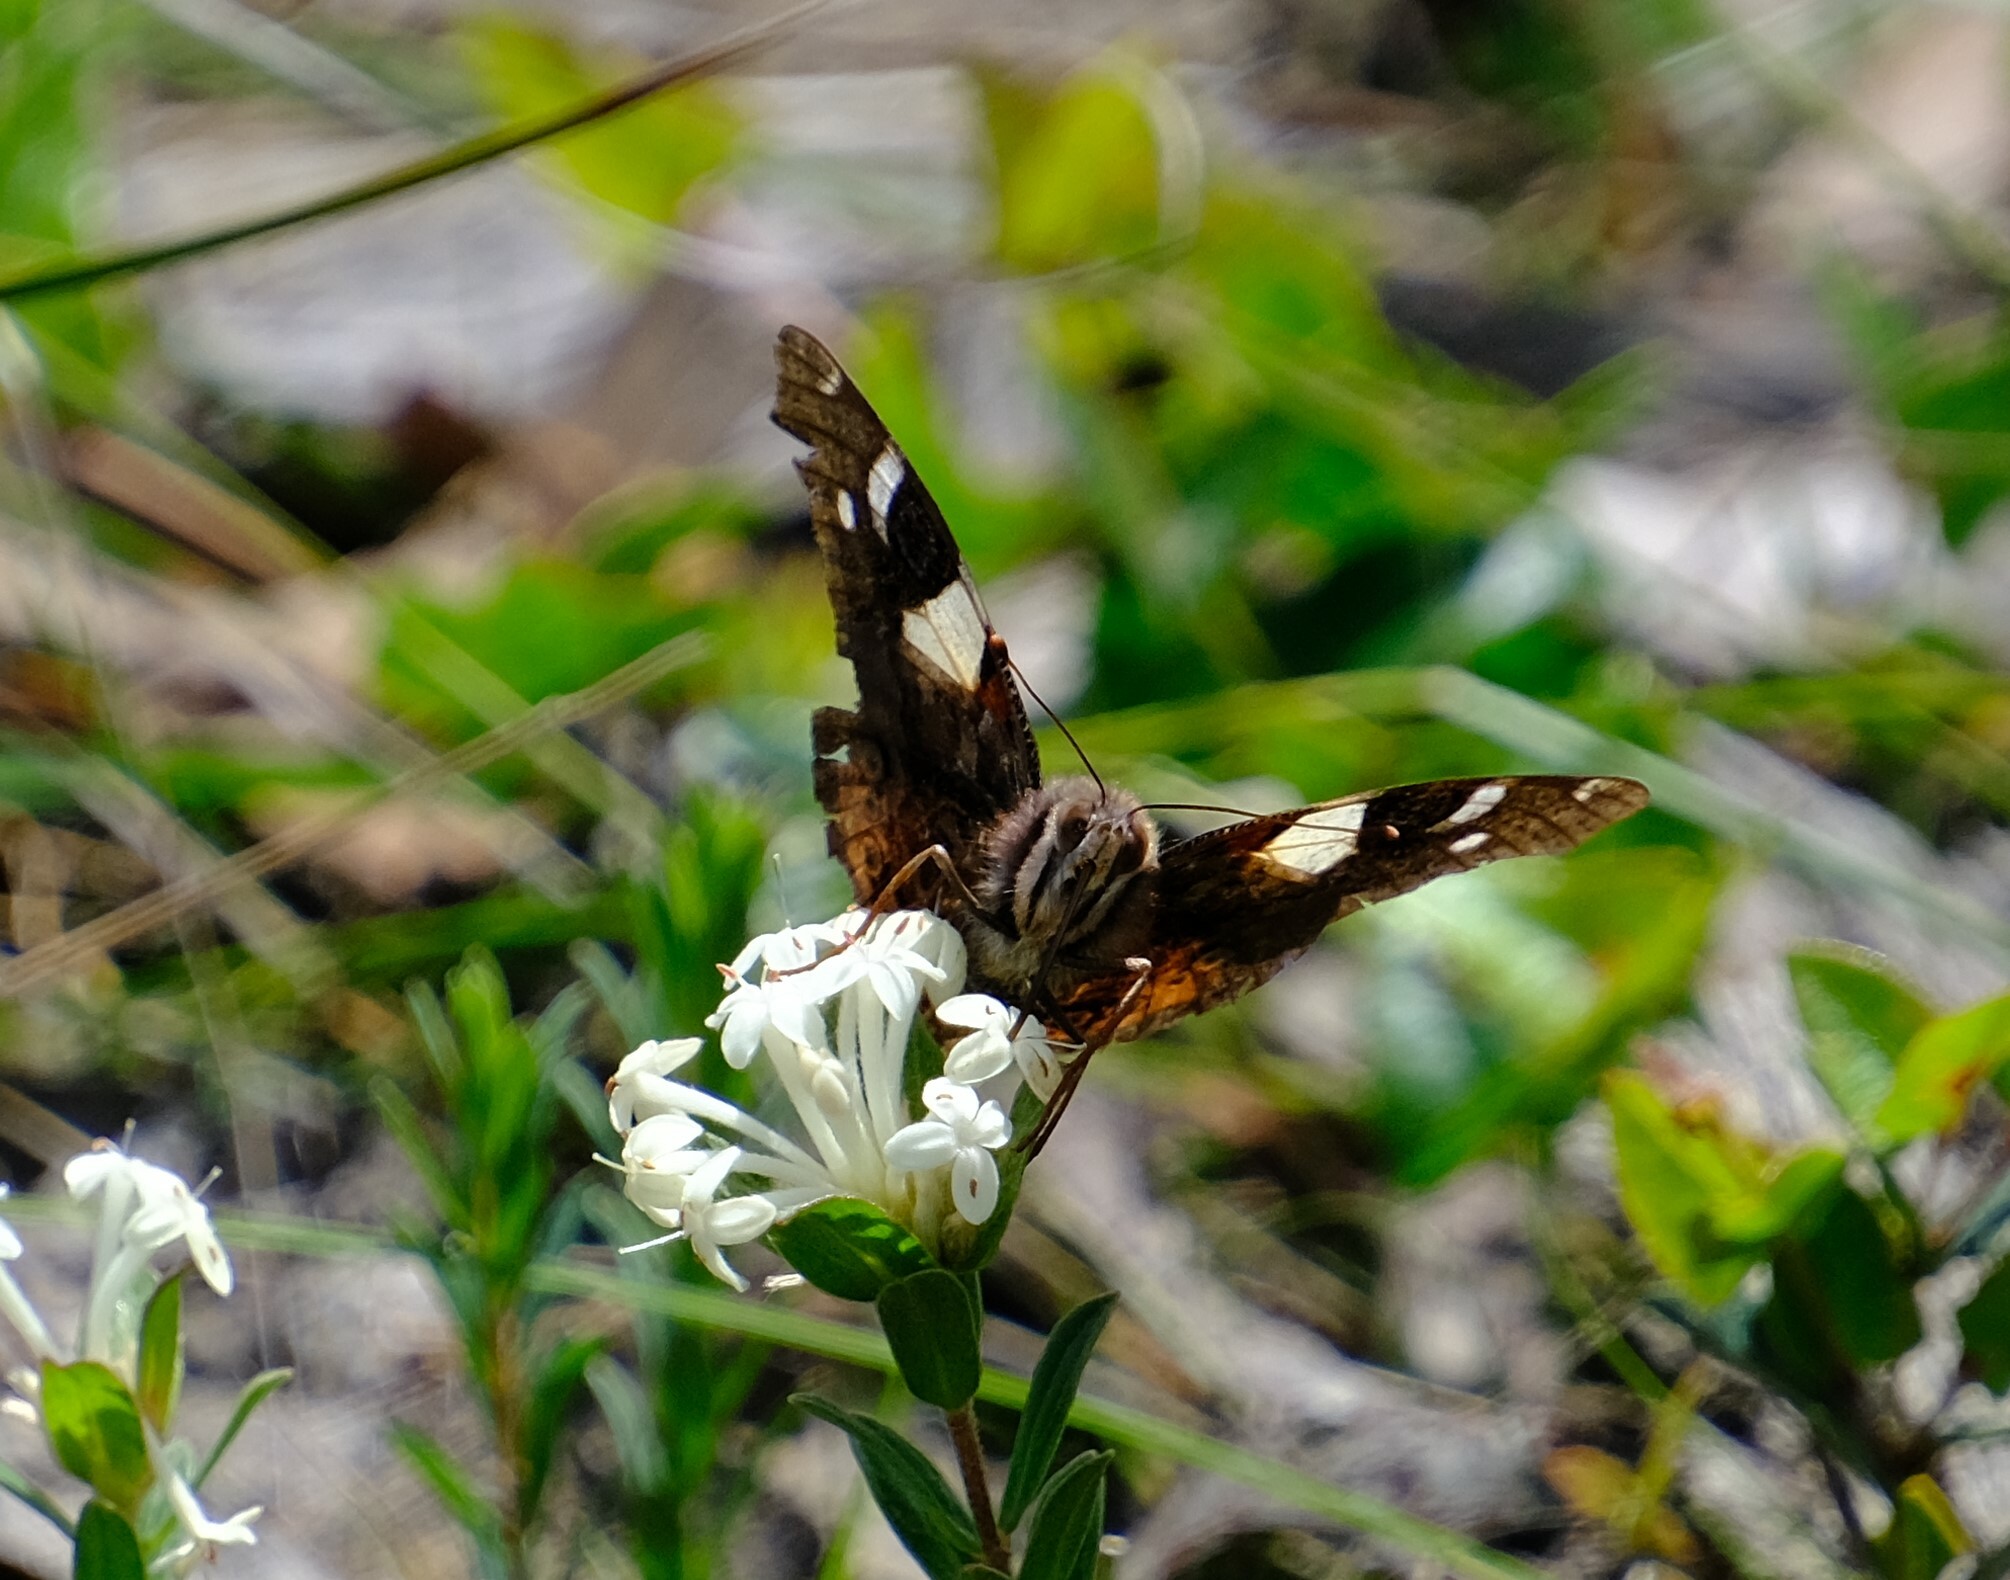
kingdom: Animalia
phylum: Arthropoda
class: Insecta
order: Lepidoptera
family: Nymphalidae
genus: Vanessa
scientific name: Vanessa itea
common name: Yellow admiral
